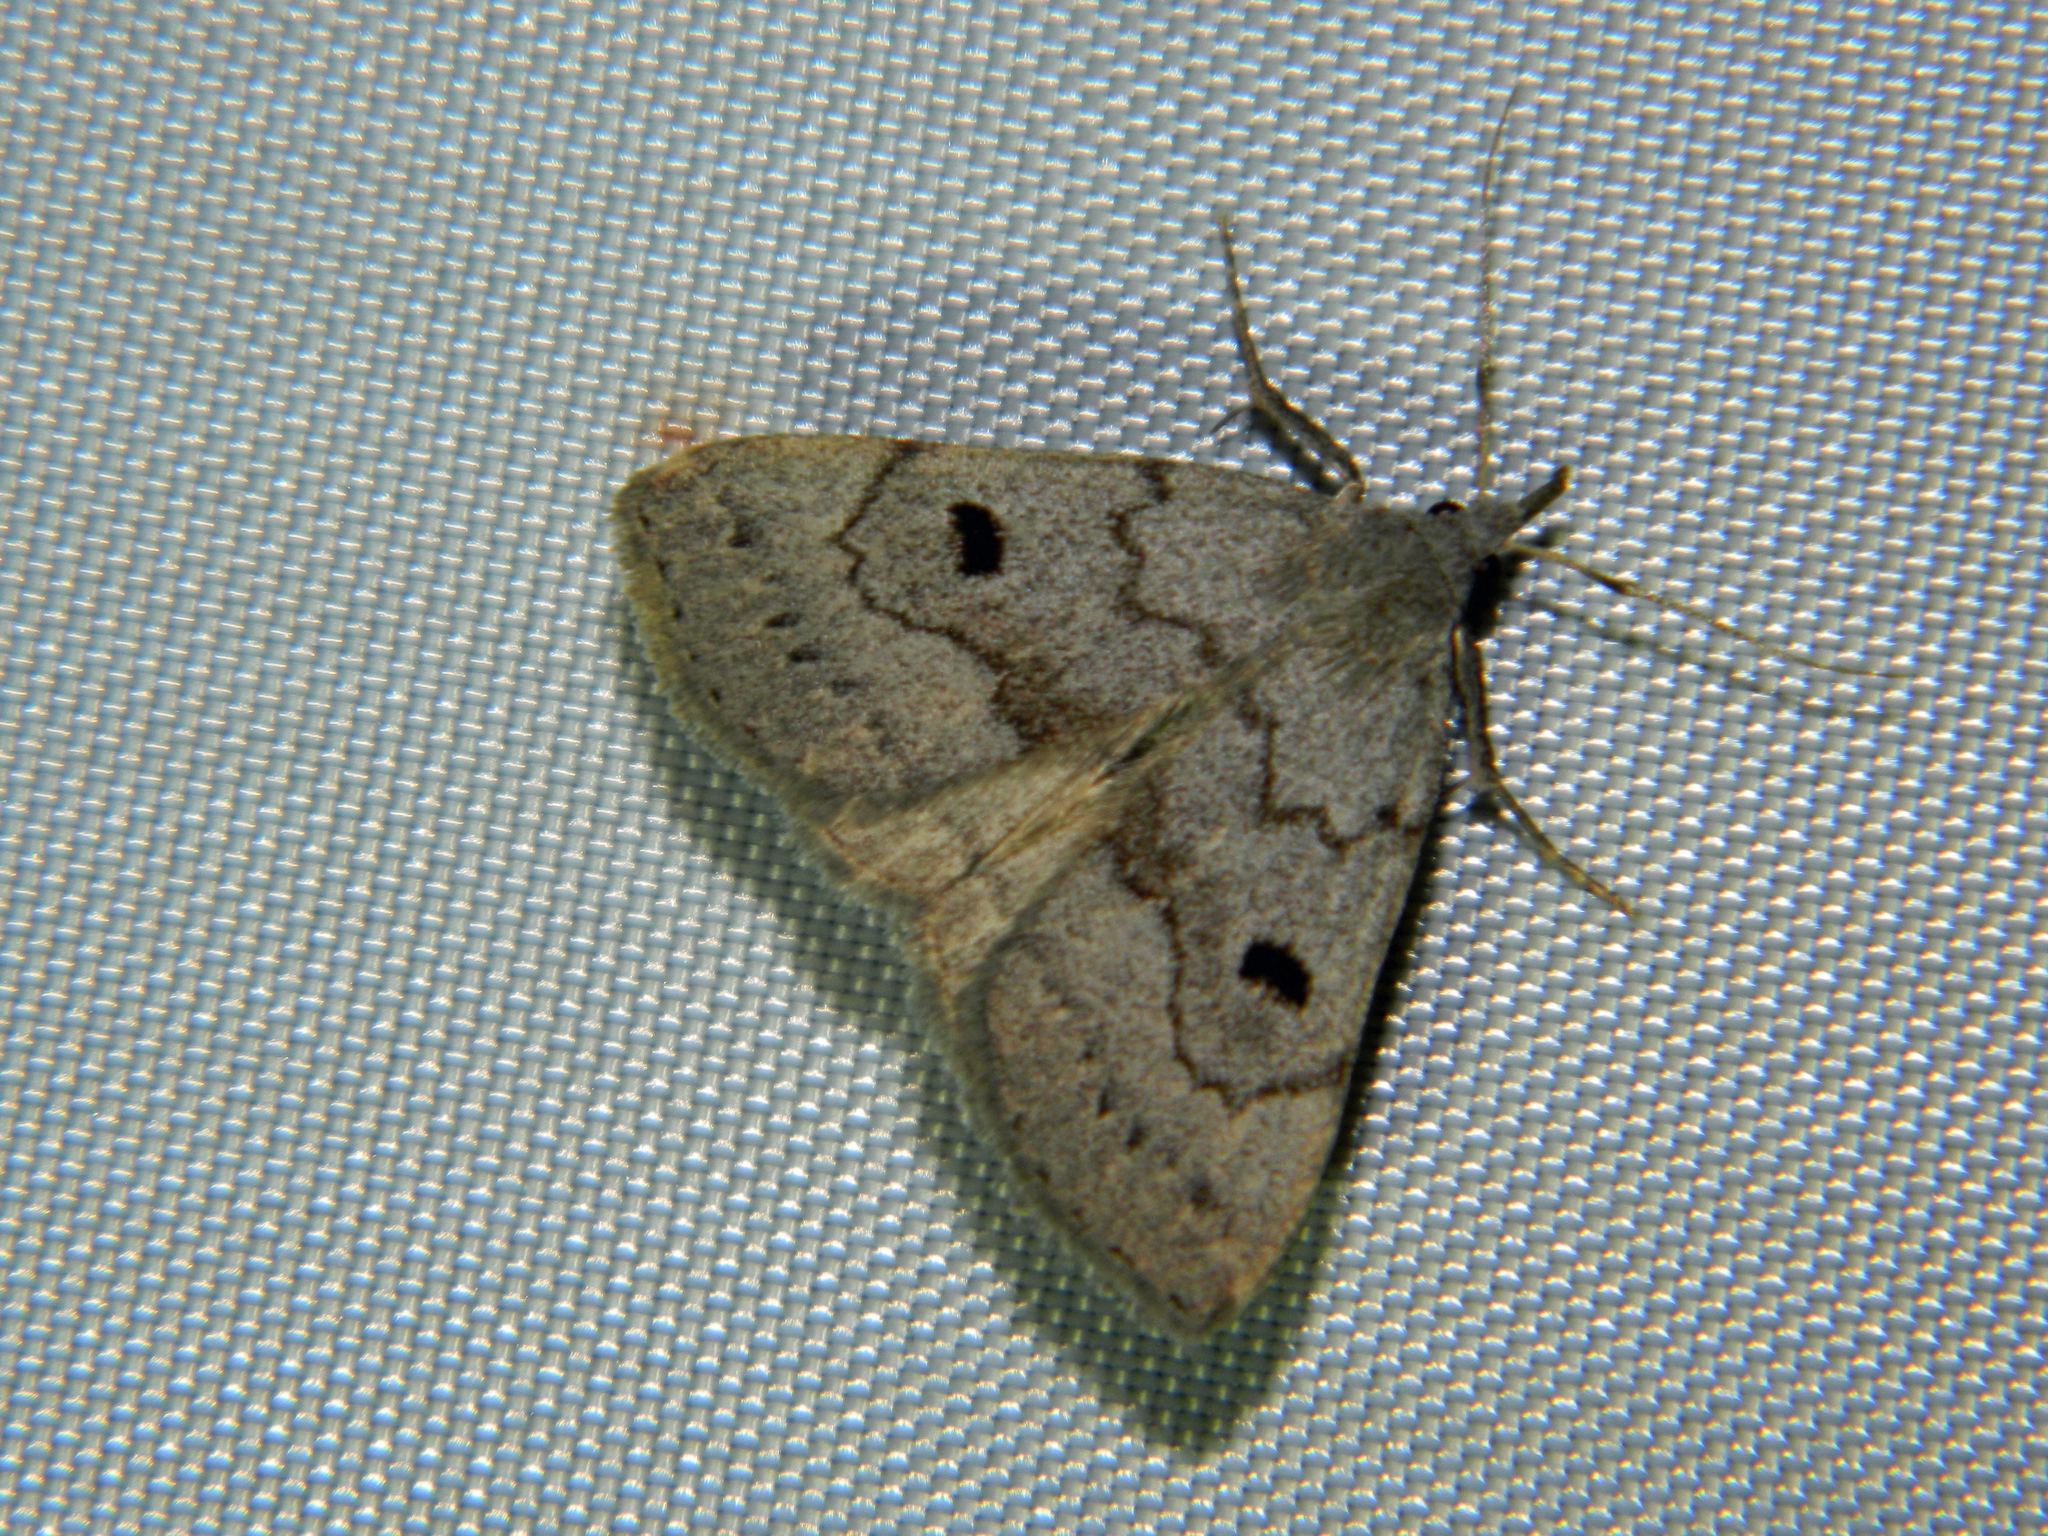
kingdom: Animalia
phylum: Arthropoda
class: Insecta
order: Lepidoptera
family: Erebidae
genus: Macrochilo
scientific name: Macrochilo morbidalis
